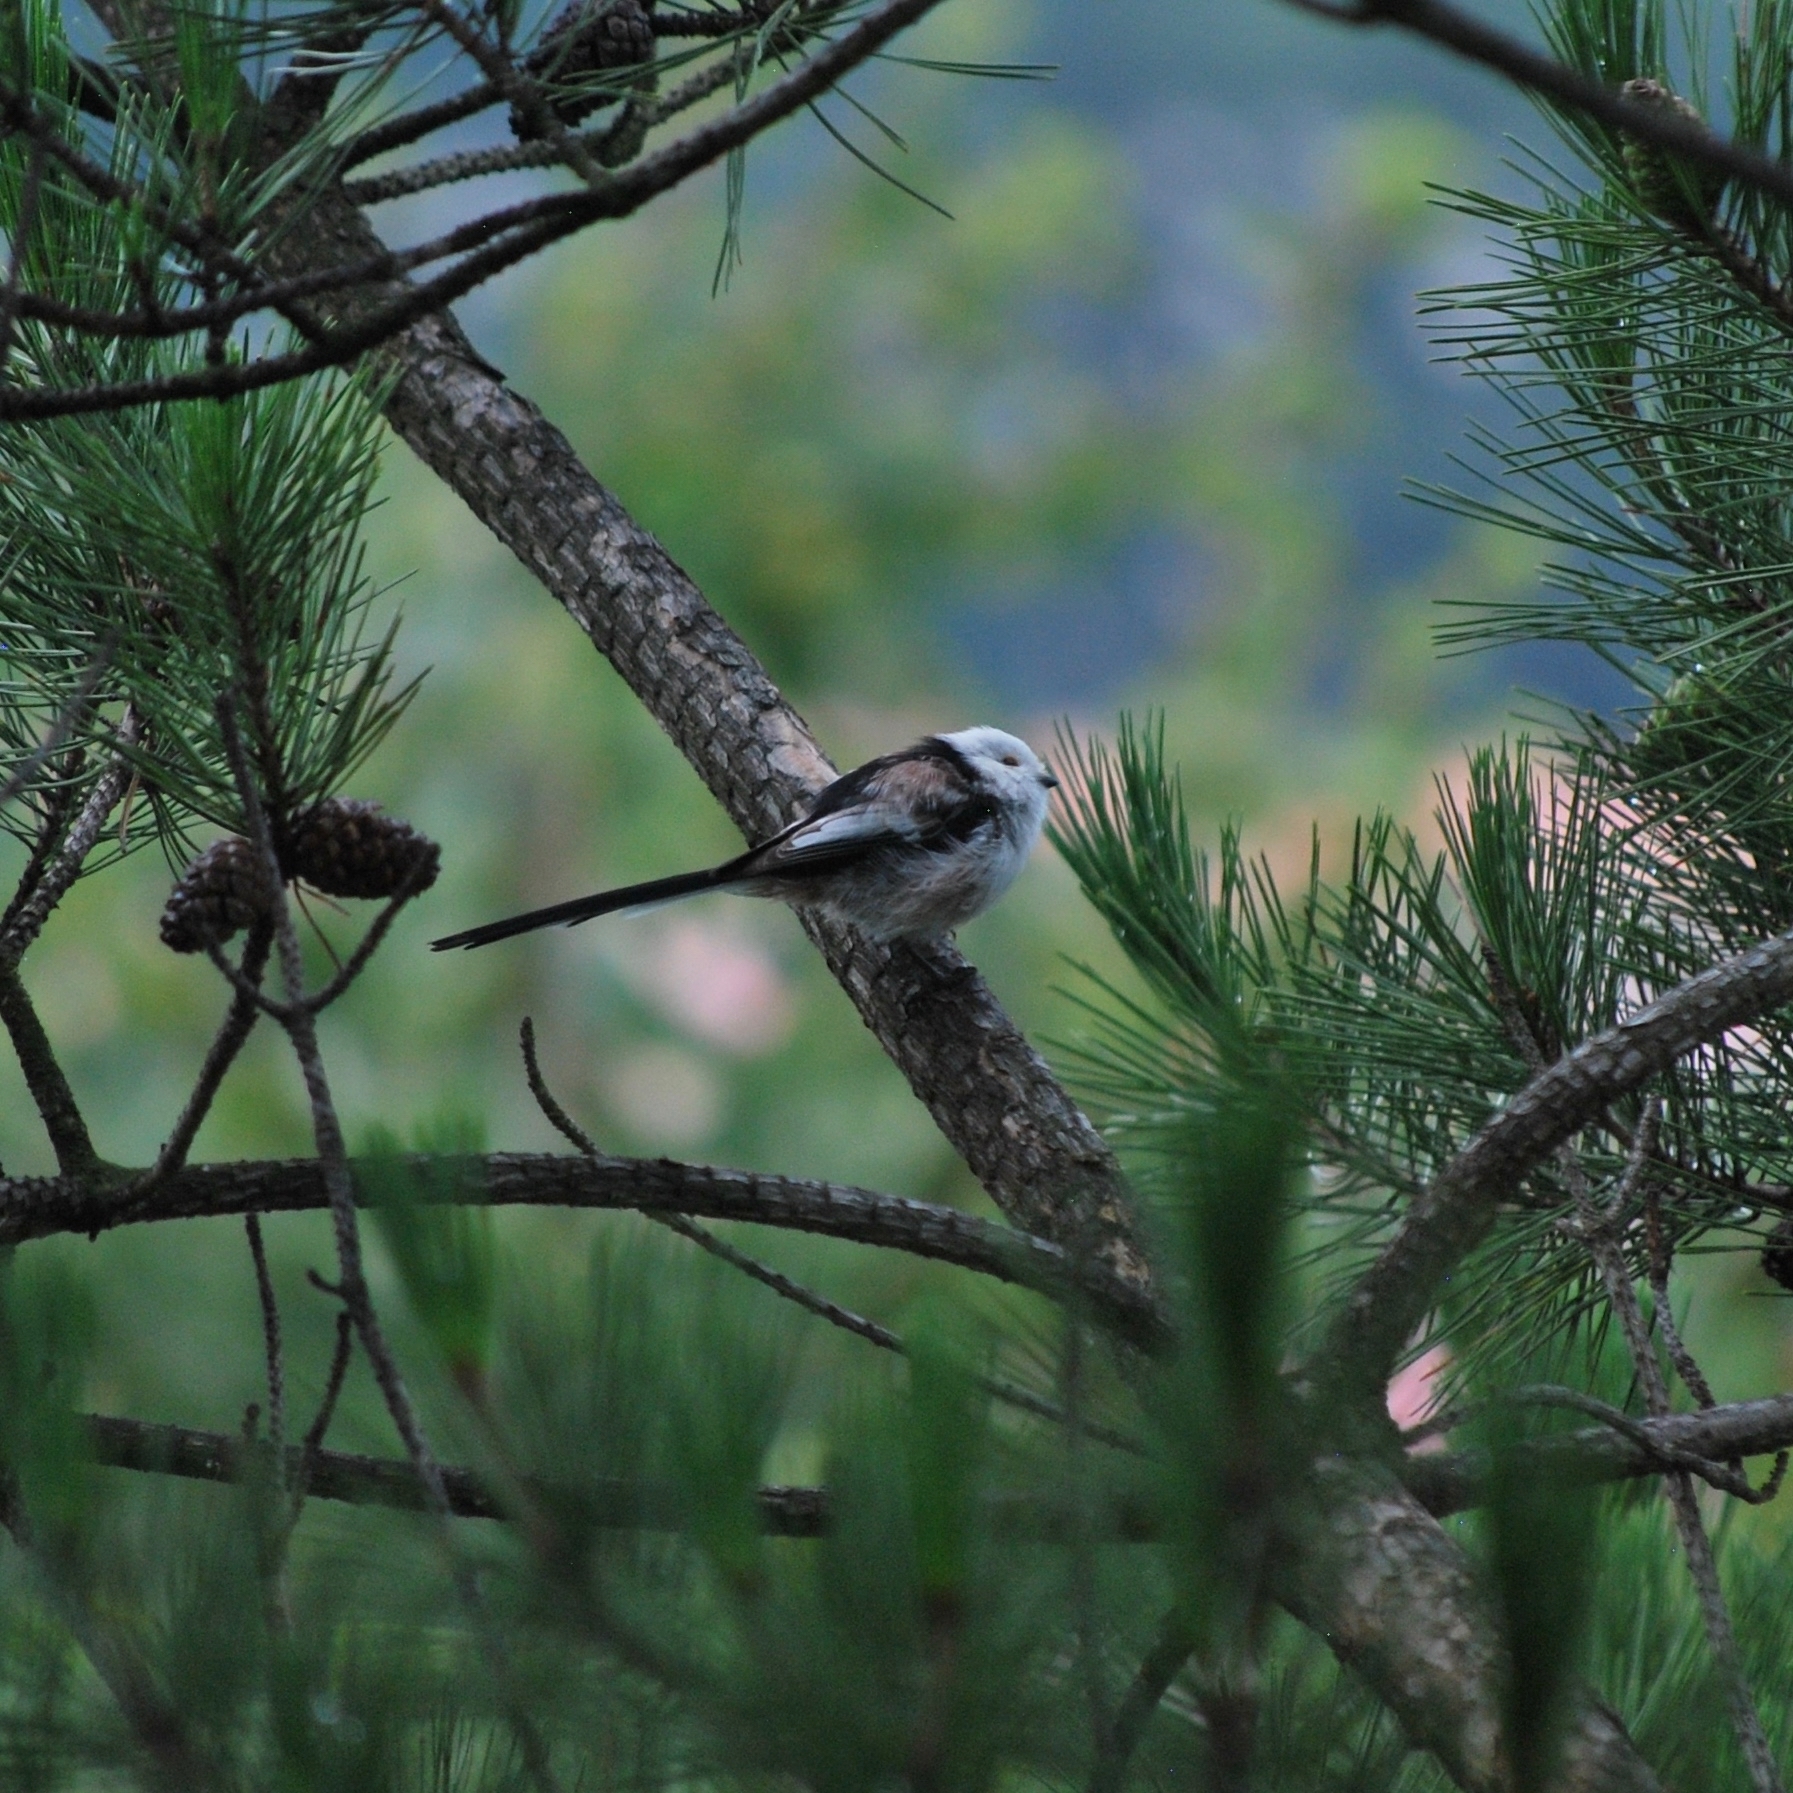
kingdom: Animalia
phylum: Chordata
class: Aves
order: Passeriformes
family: Aegithalidae
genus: Aegithalos
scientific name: Aegithalos caudatus
